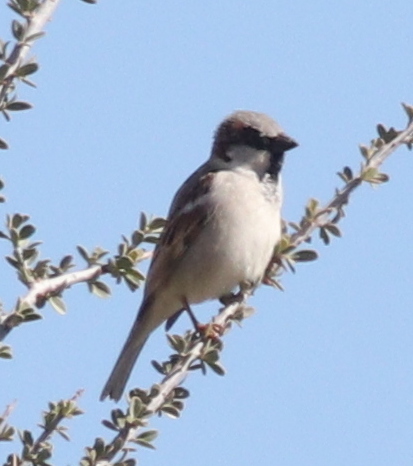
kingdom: Animalia
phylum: Chordata
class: Aves
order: Passeriformes
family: Passeridae
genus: Passer
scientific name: Passer domesticus
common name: House sparrow
